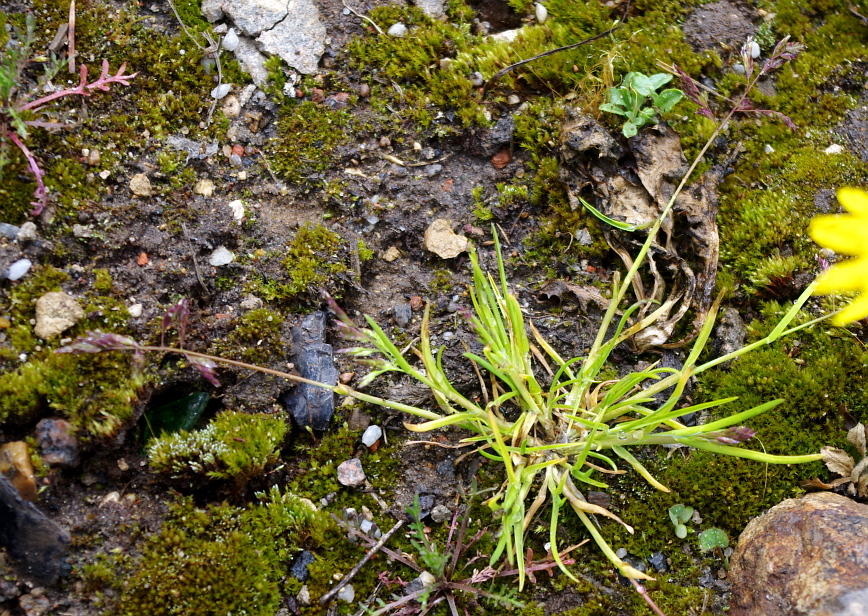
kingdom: Plantae
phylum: Tracheophyta
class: Liliopsida
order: Poales
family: Poaceae
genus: Poa
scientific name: Poa annua
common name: Annual bluegrass
